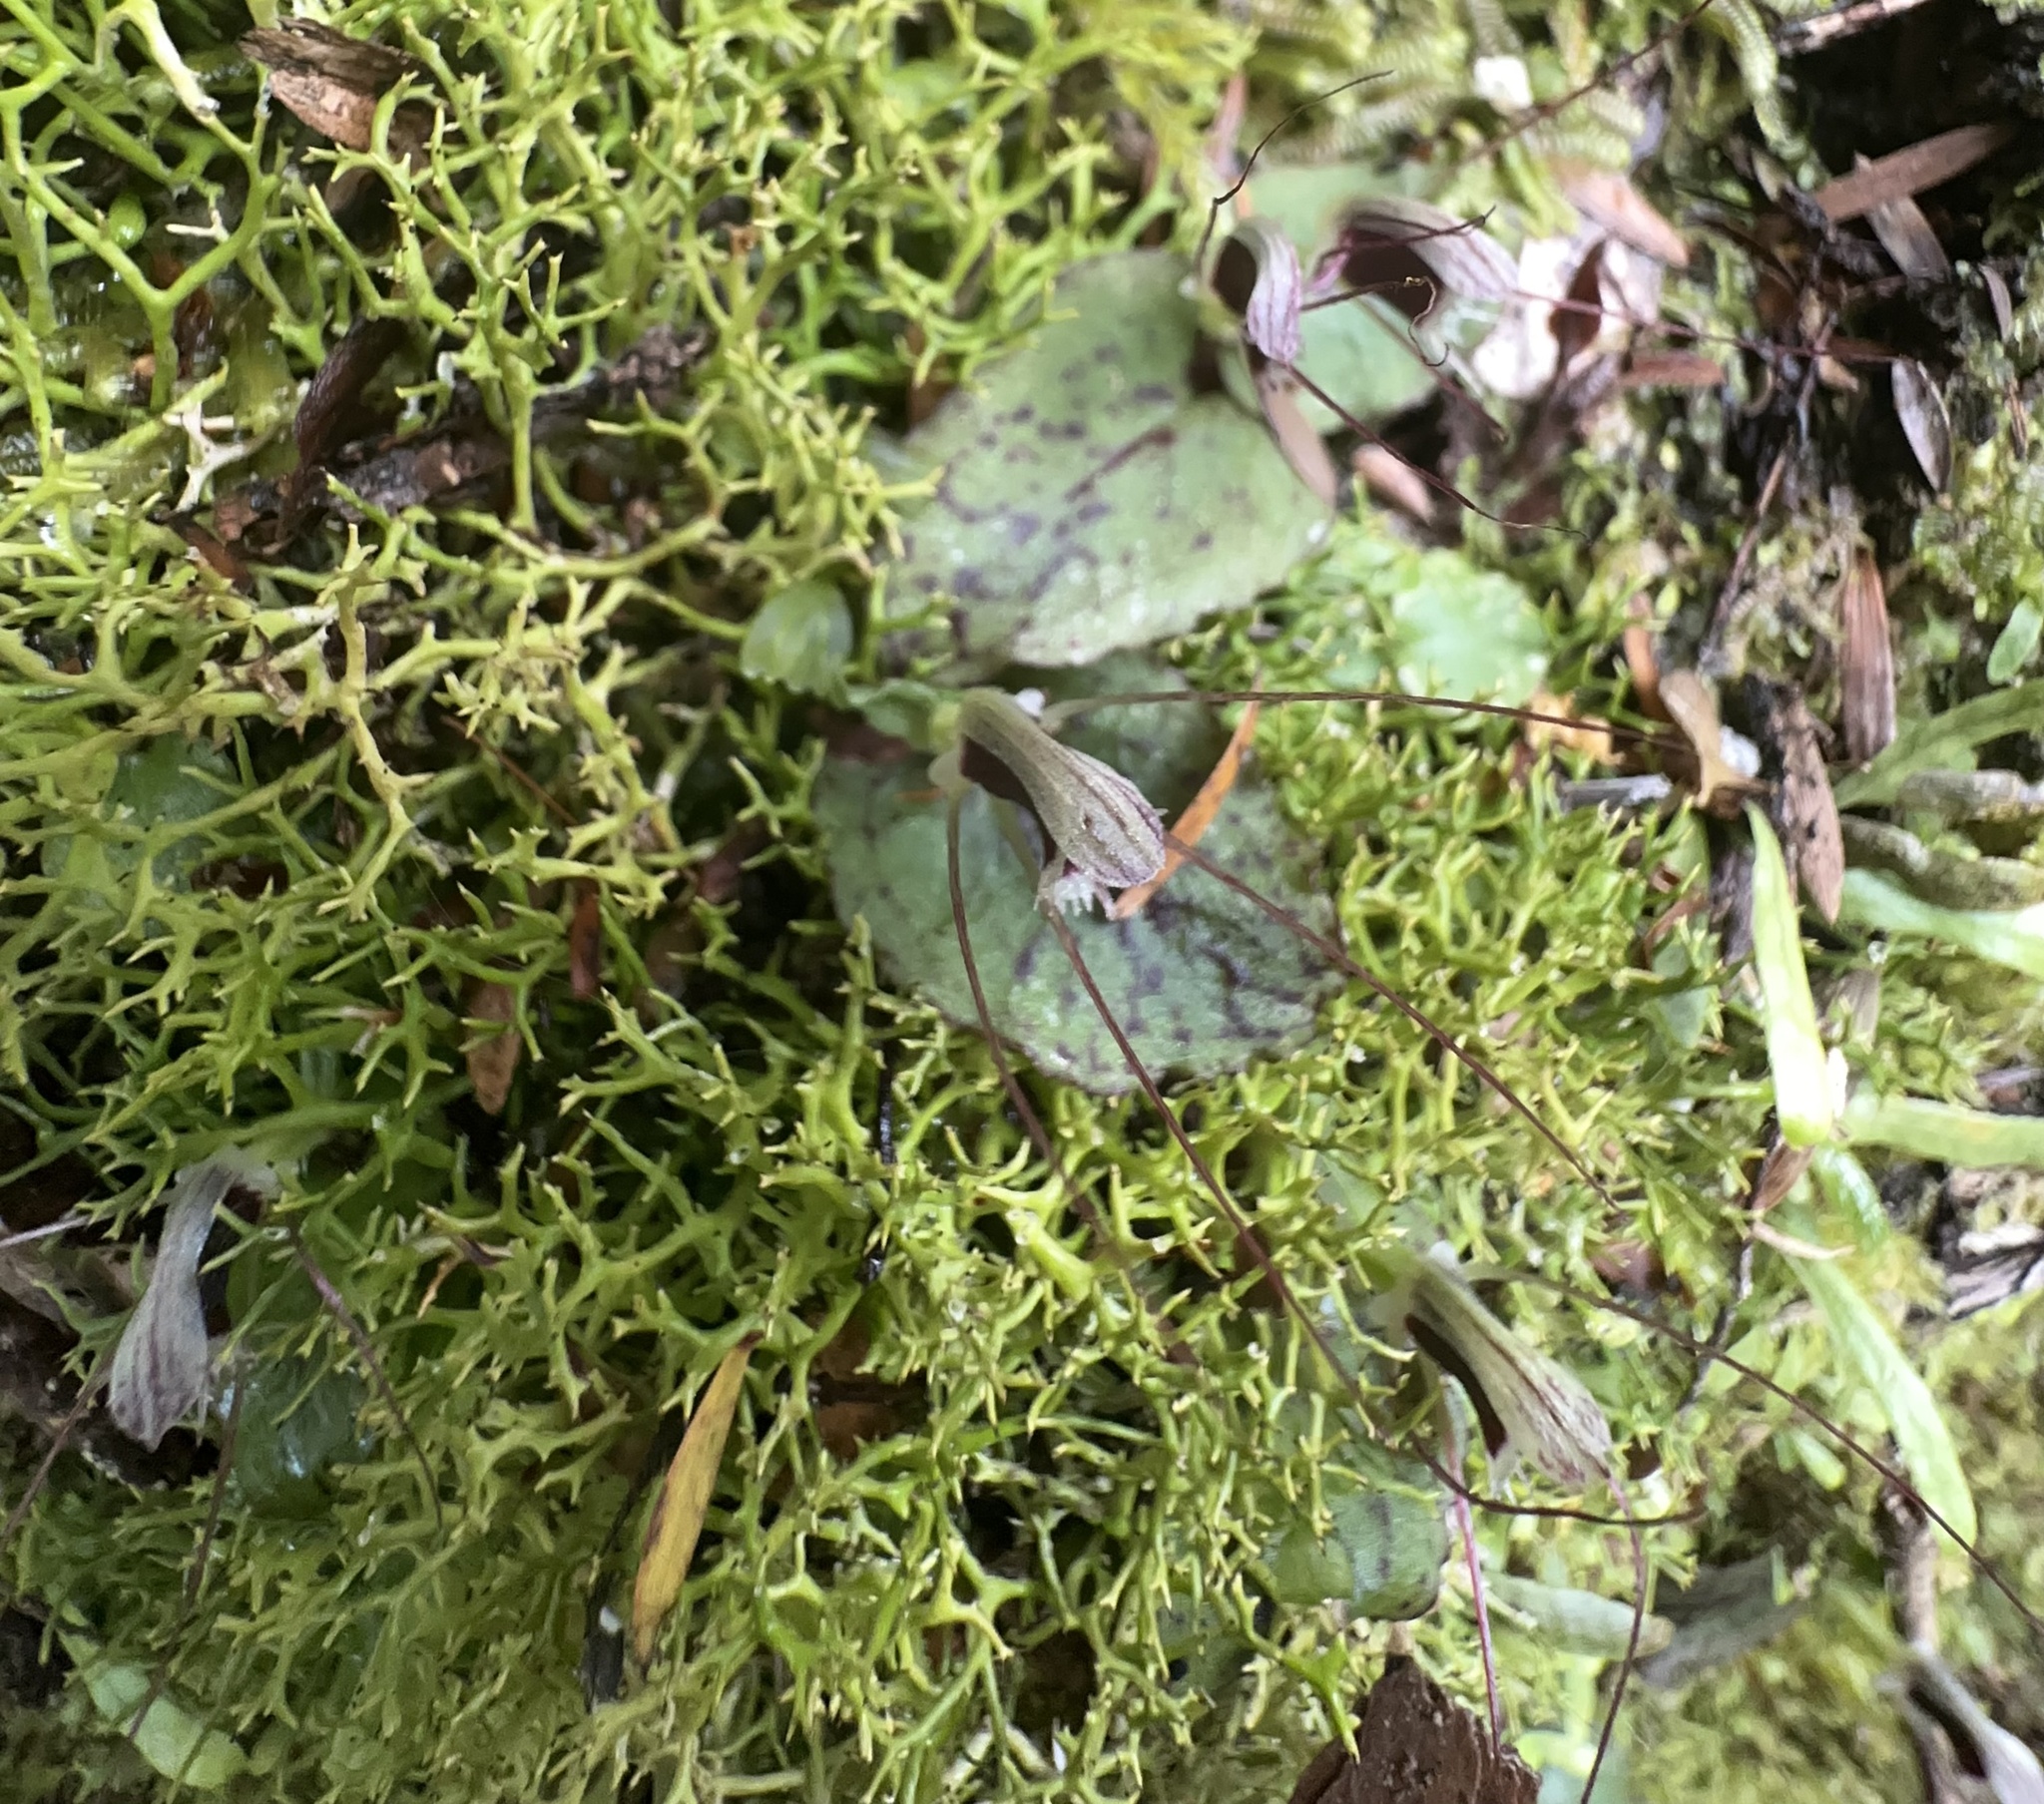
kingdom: Plantae
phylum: Tracheophyta
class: Liliopsida
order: Asparagales
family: Orchidaceae
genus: Corybas
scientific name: Corybas oblongus
